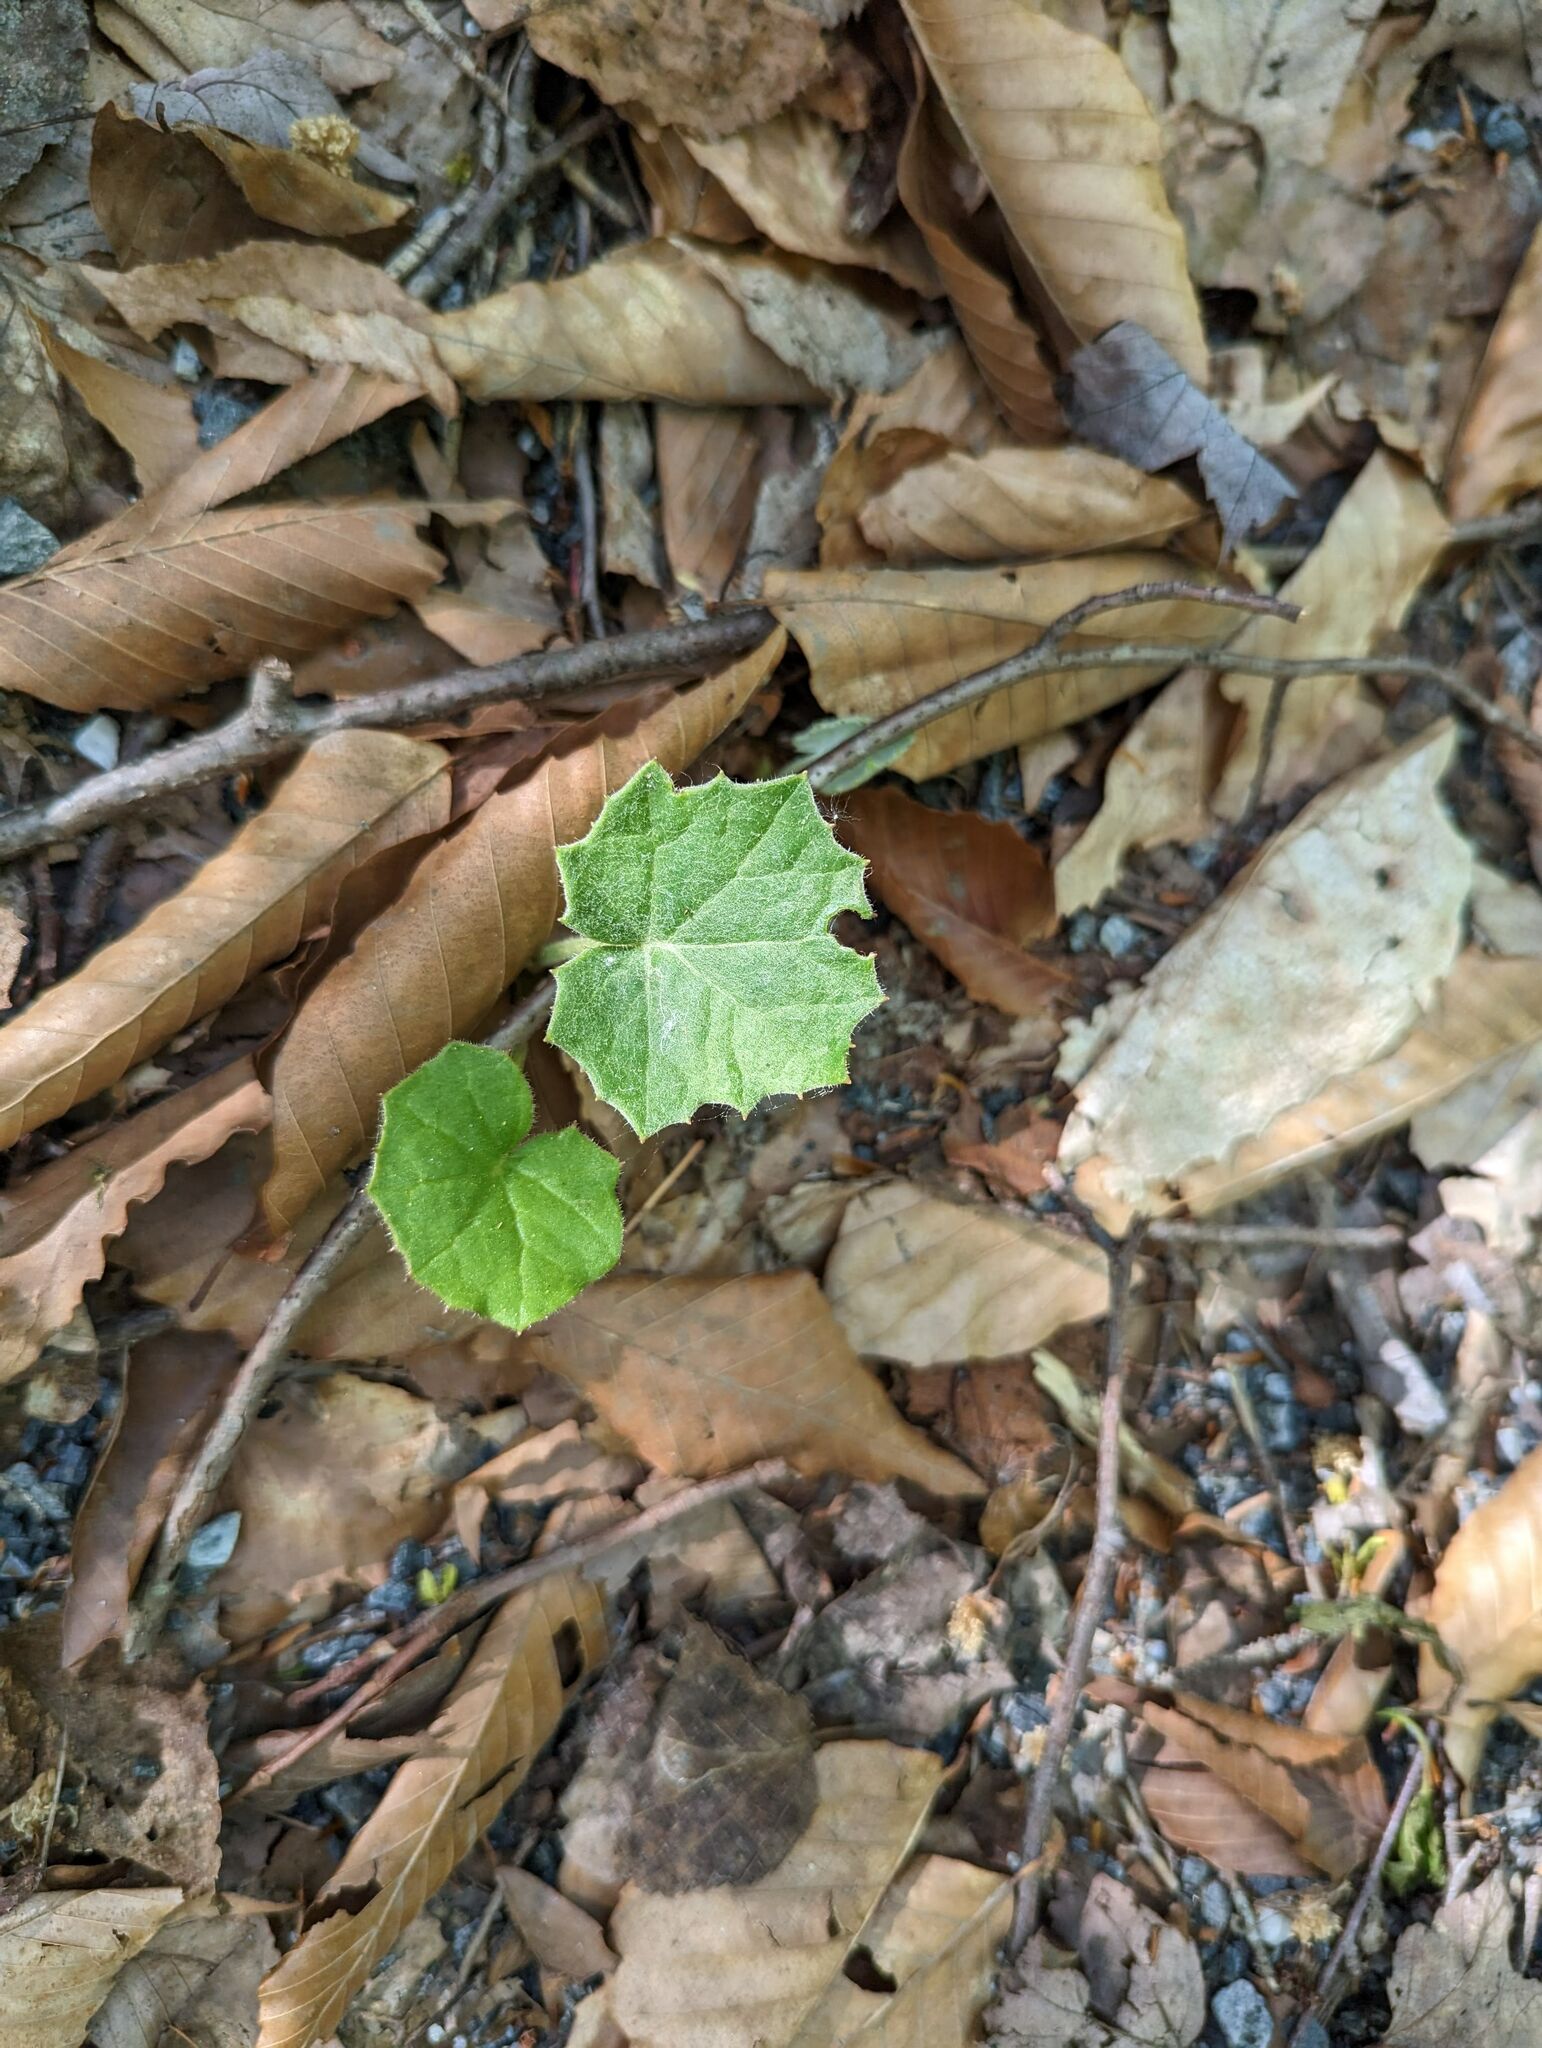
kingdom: Plantae
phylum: Tracheophyta
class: Magnoliopsida
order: Asterales
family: Asteraceae
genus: Tussilago
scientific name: Tussilago farfara
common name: Coltsfoot
